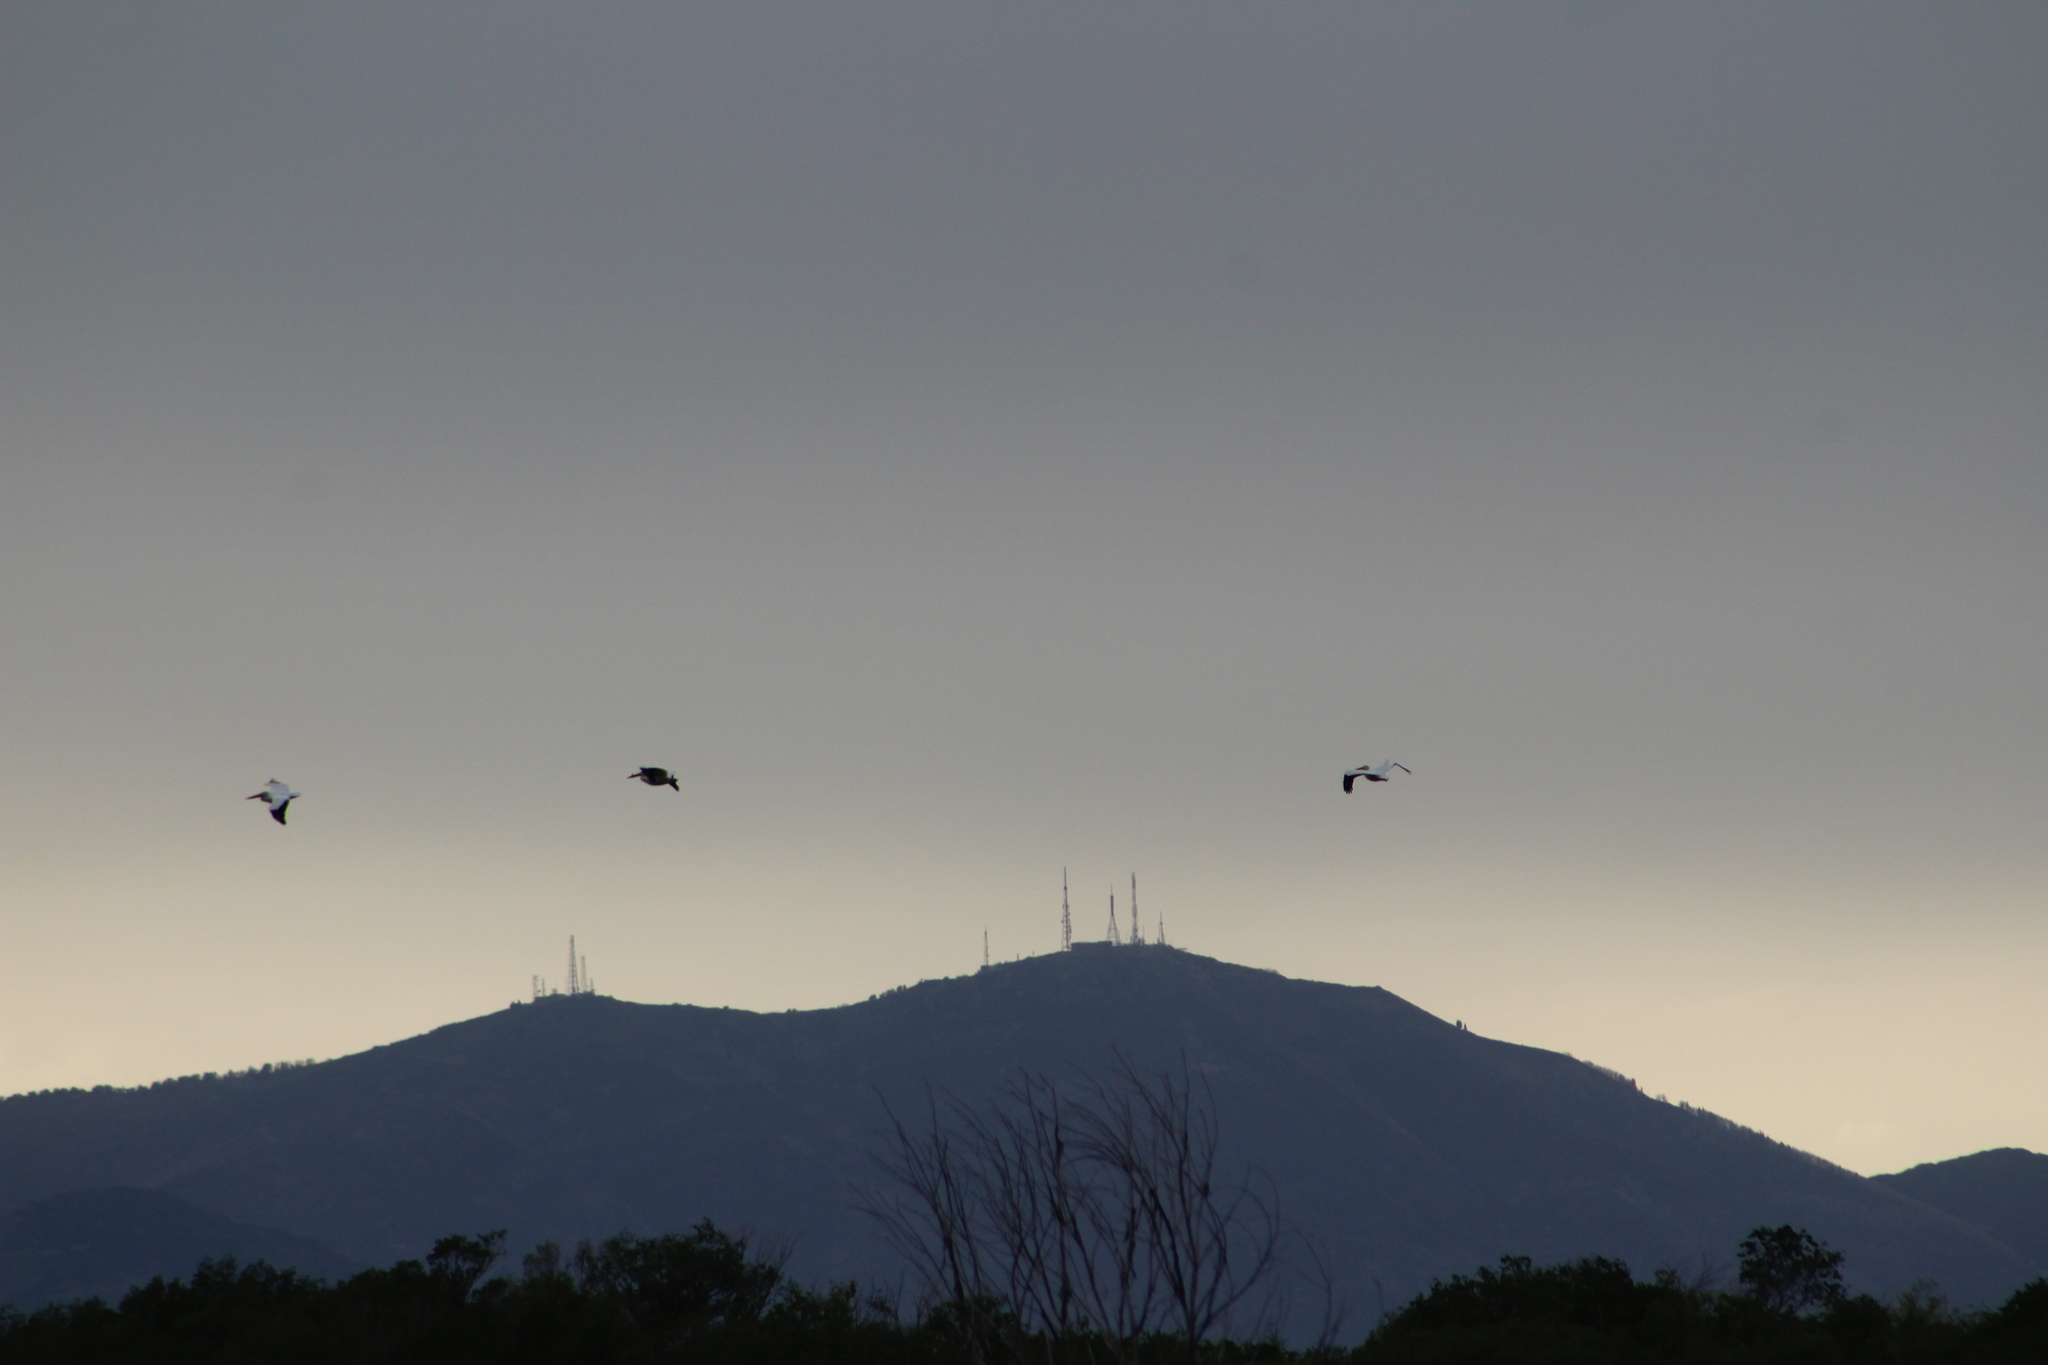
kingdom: Animalia
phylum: Chordata
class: Aves
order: Pelecaniformes
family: Pelecanidae
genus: Pelecanus
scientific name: Pelecanus erythrorhynchos
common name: American white pelican
